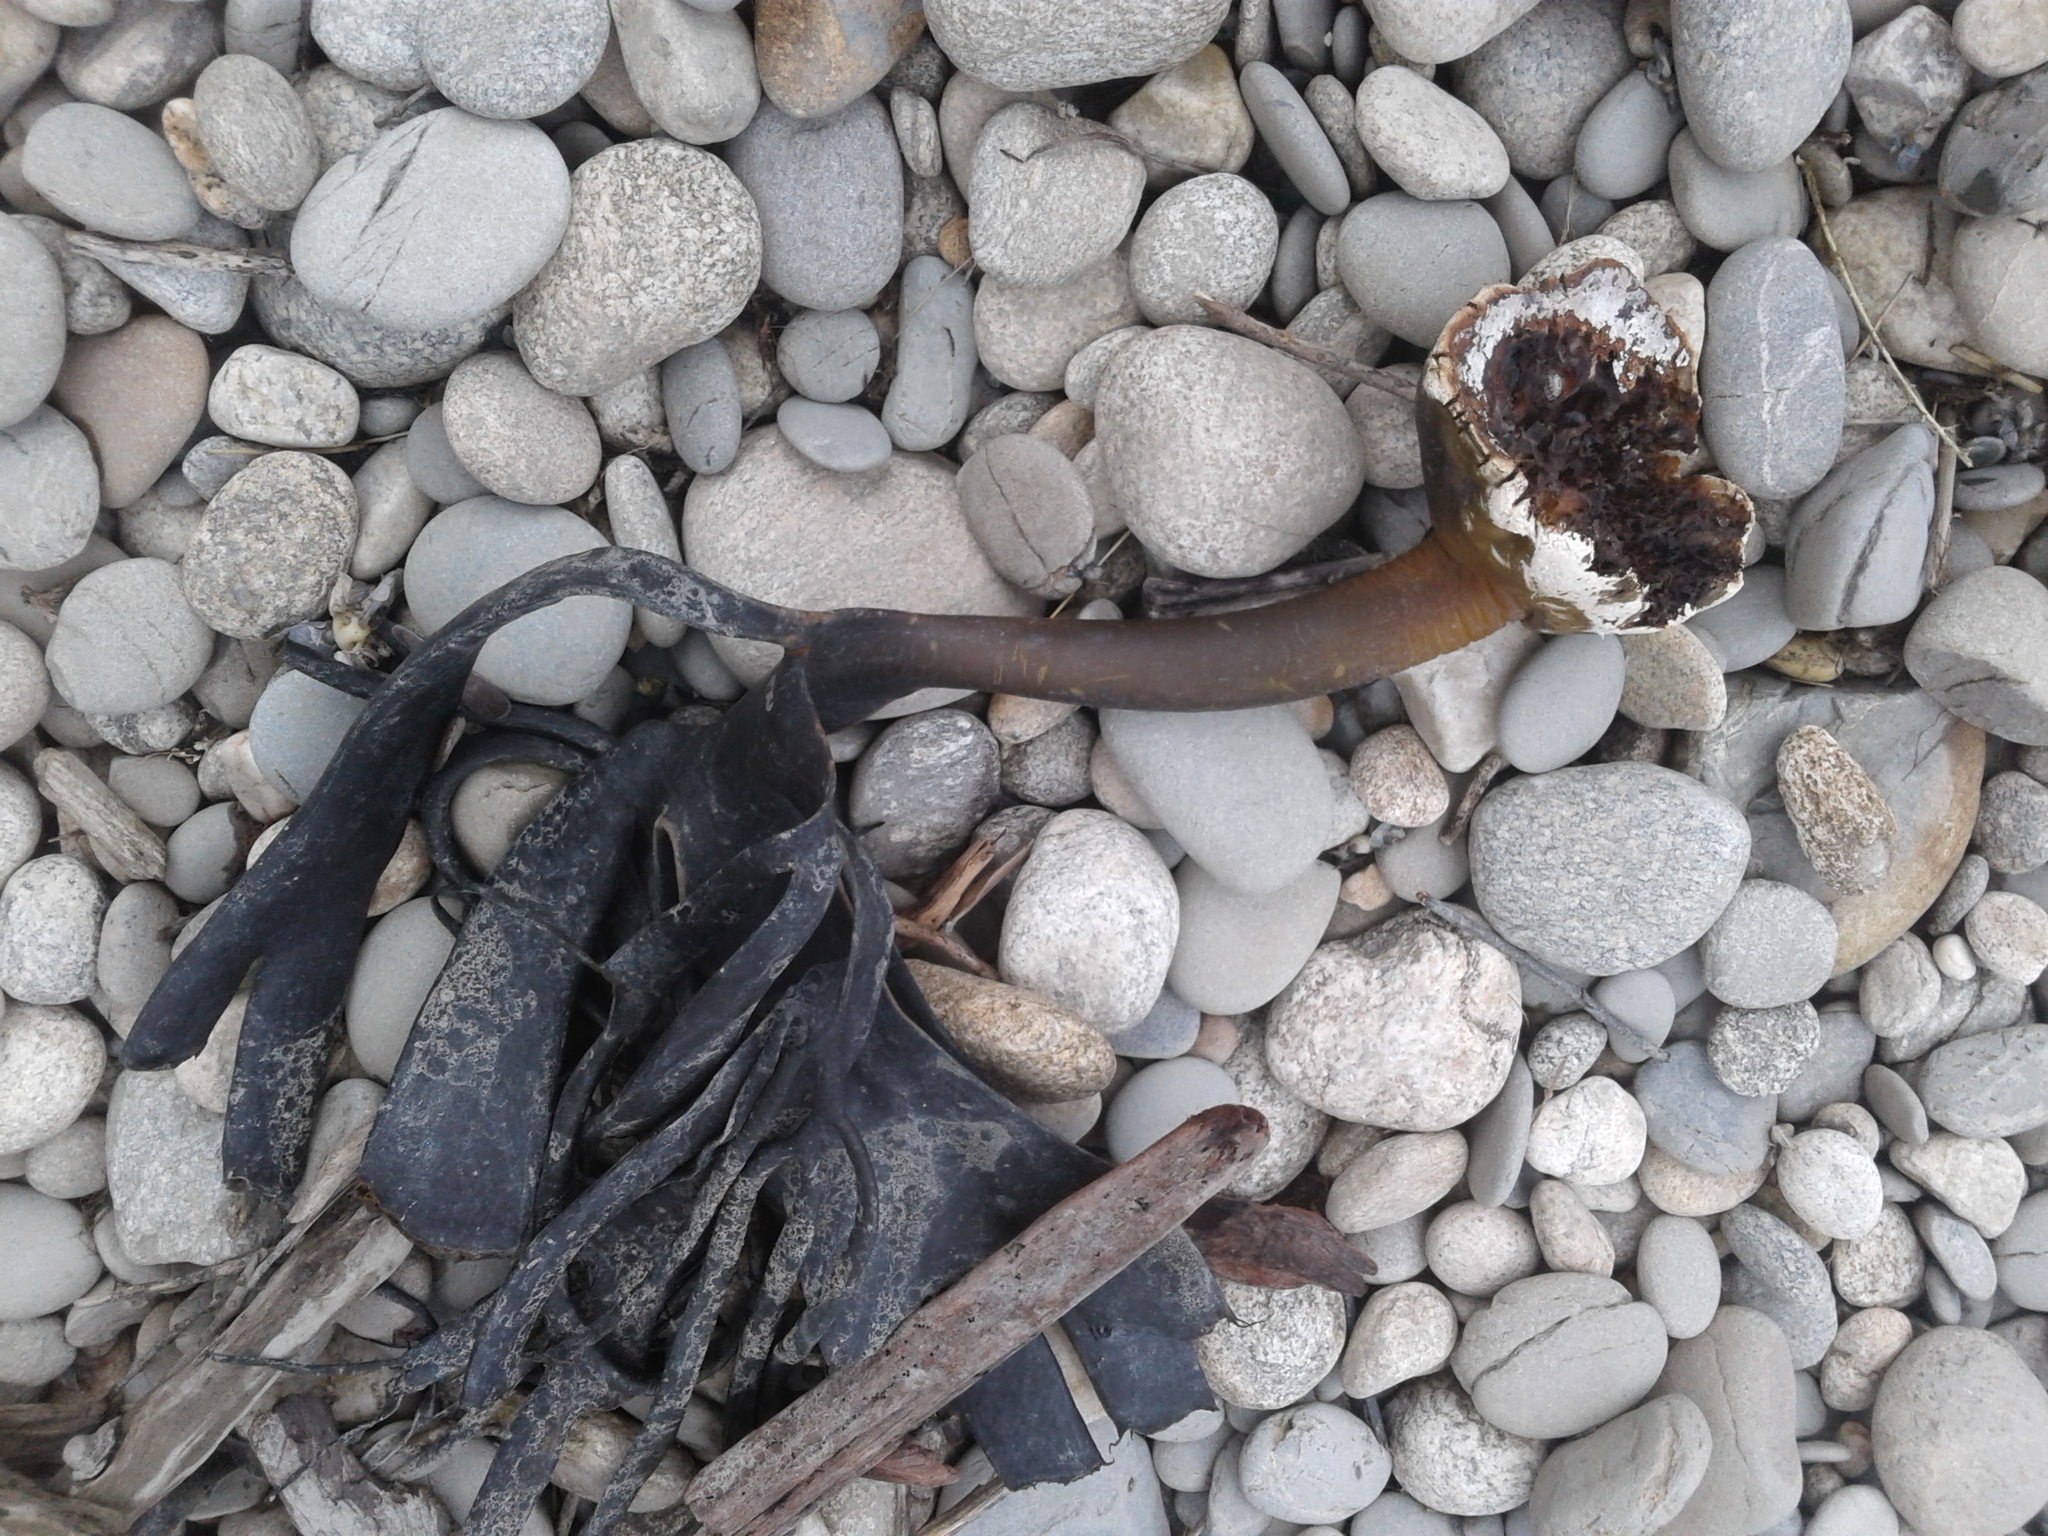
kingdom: Chromista
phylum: Ochrophyta
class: Phaeophyceae
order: Fucales
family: Durvillaeaceae
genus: Durvillaea
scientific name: Durvillaea antarctica
